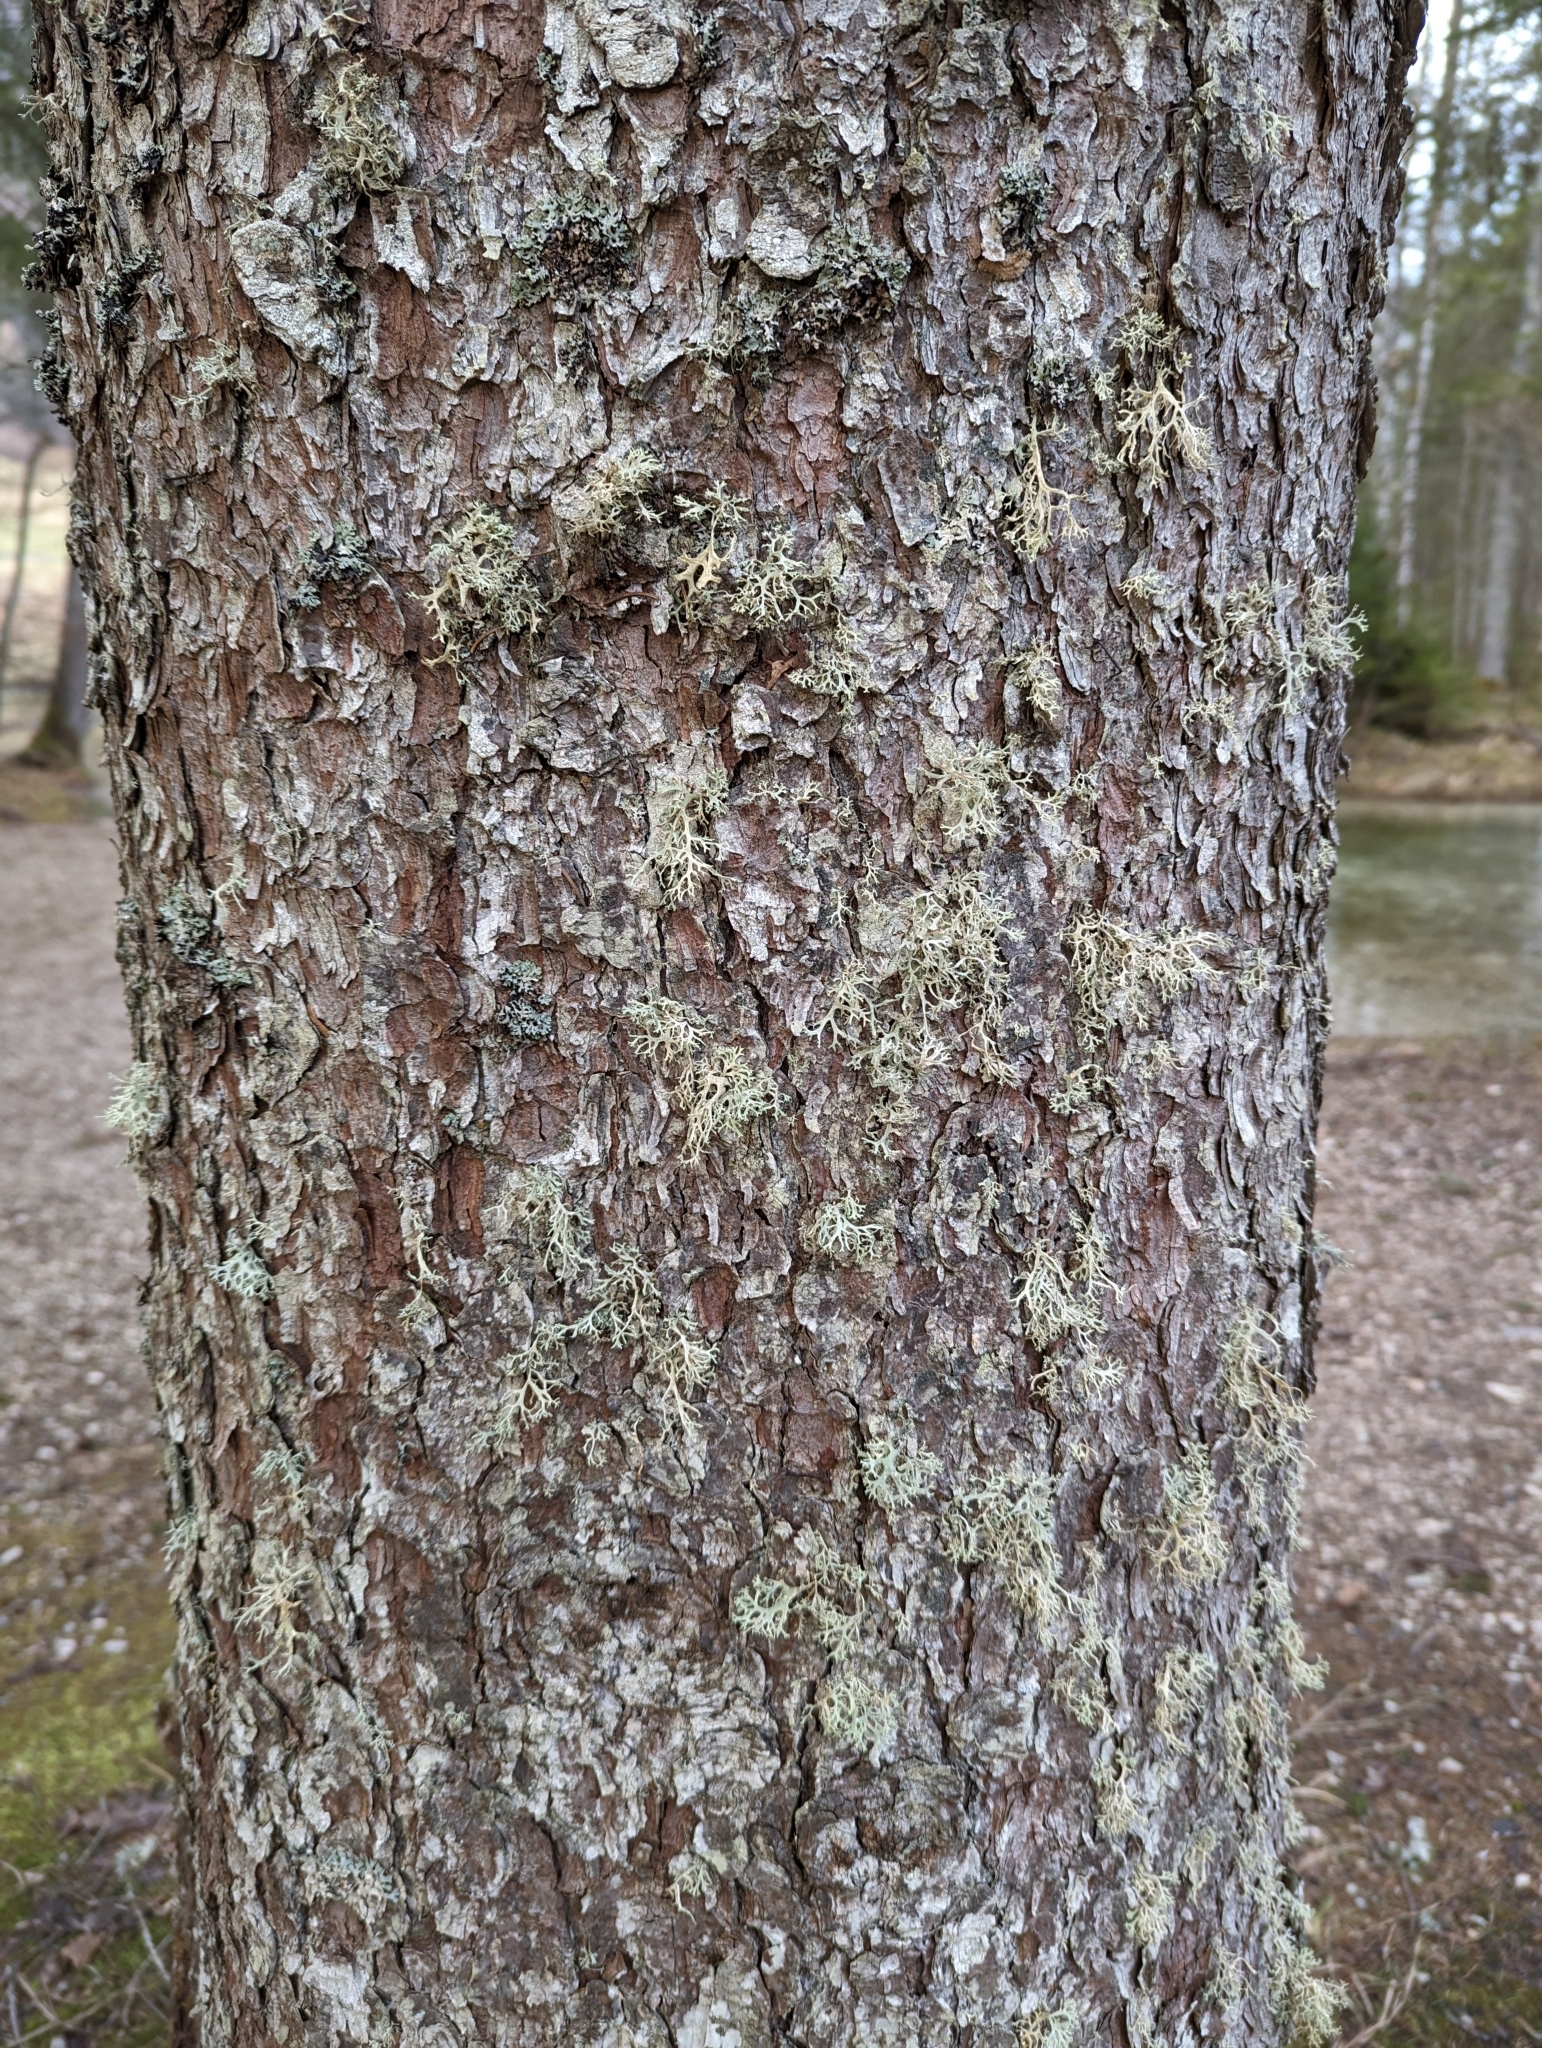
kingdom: Fungi
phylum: Ascomycota
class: Lecanoromycetes
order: Lecanorales
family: Parmeliaceae
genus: Evernia
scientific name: Evernia prunastri
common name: Oak moss
